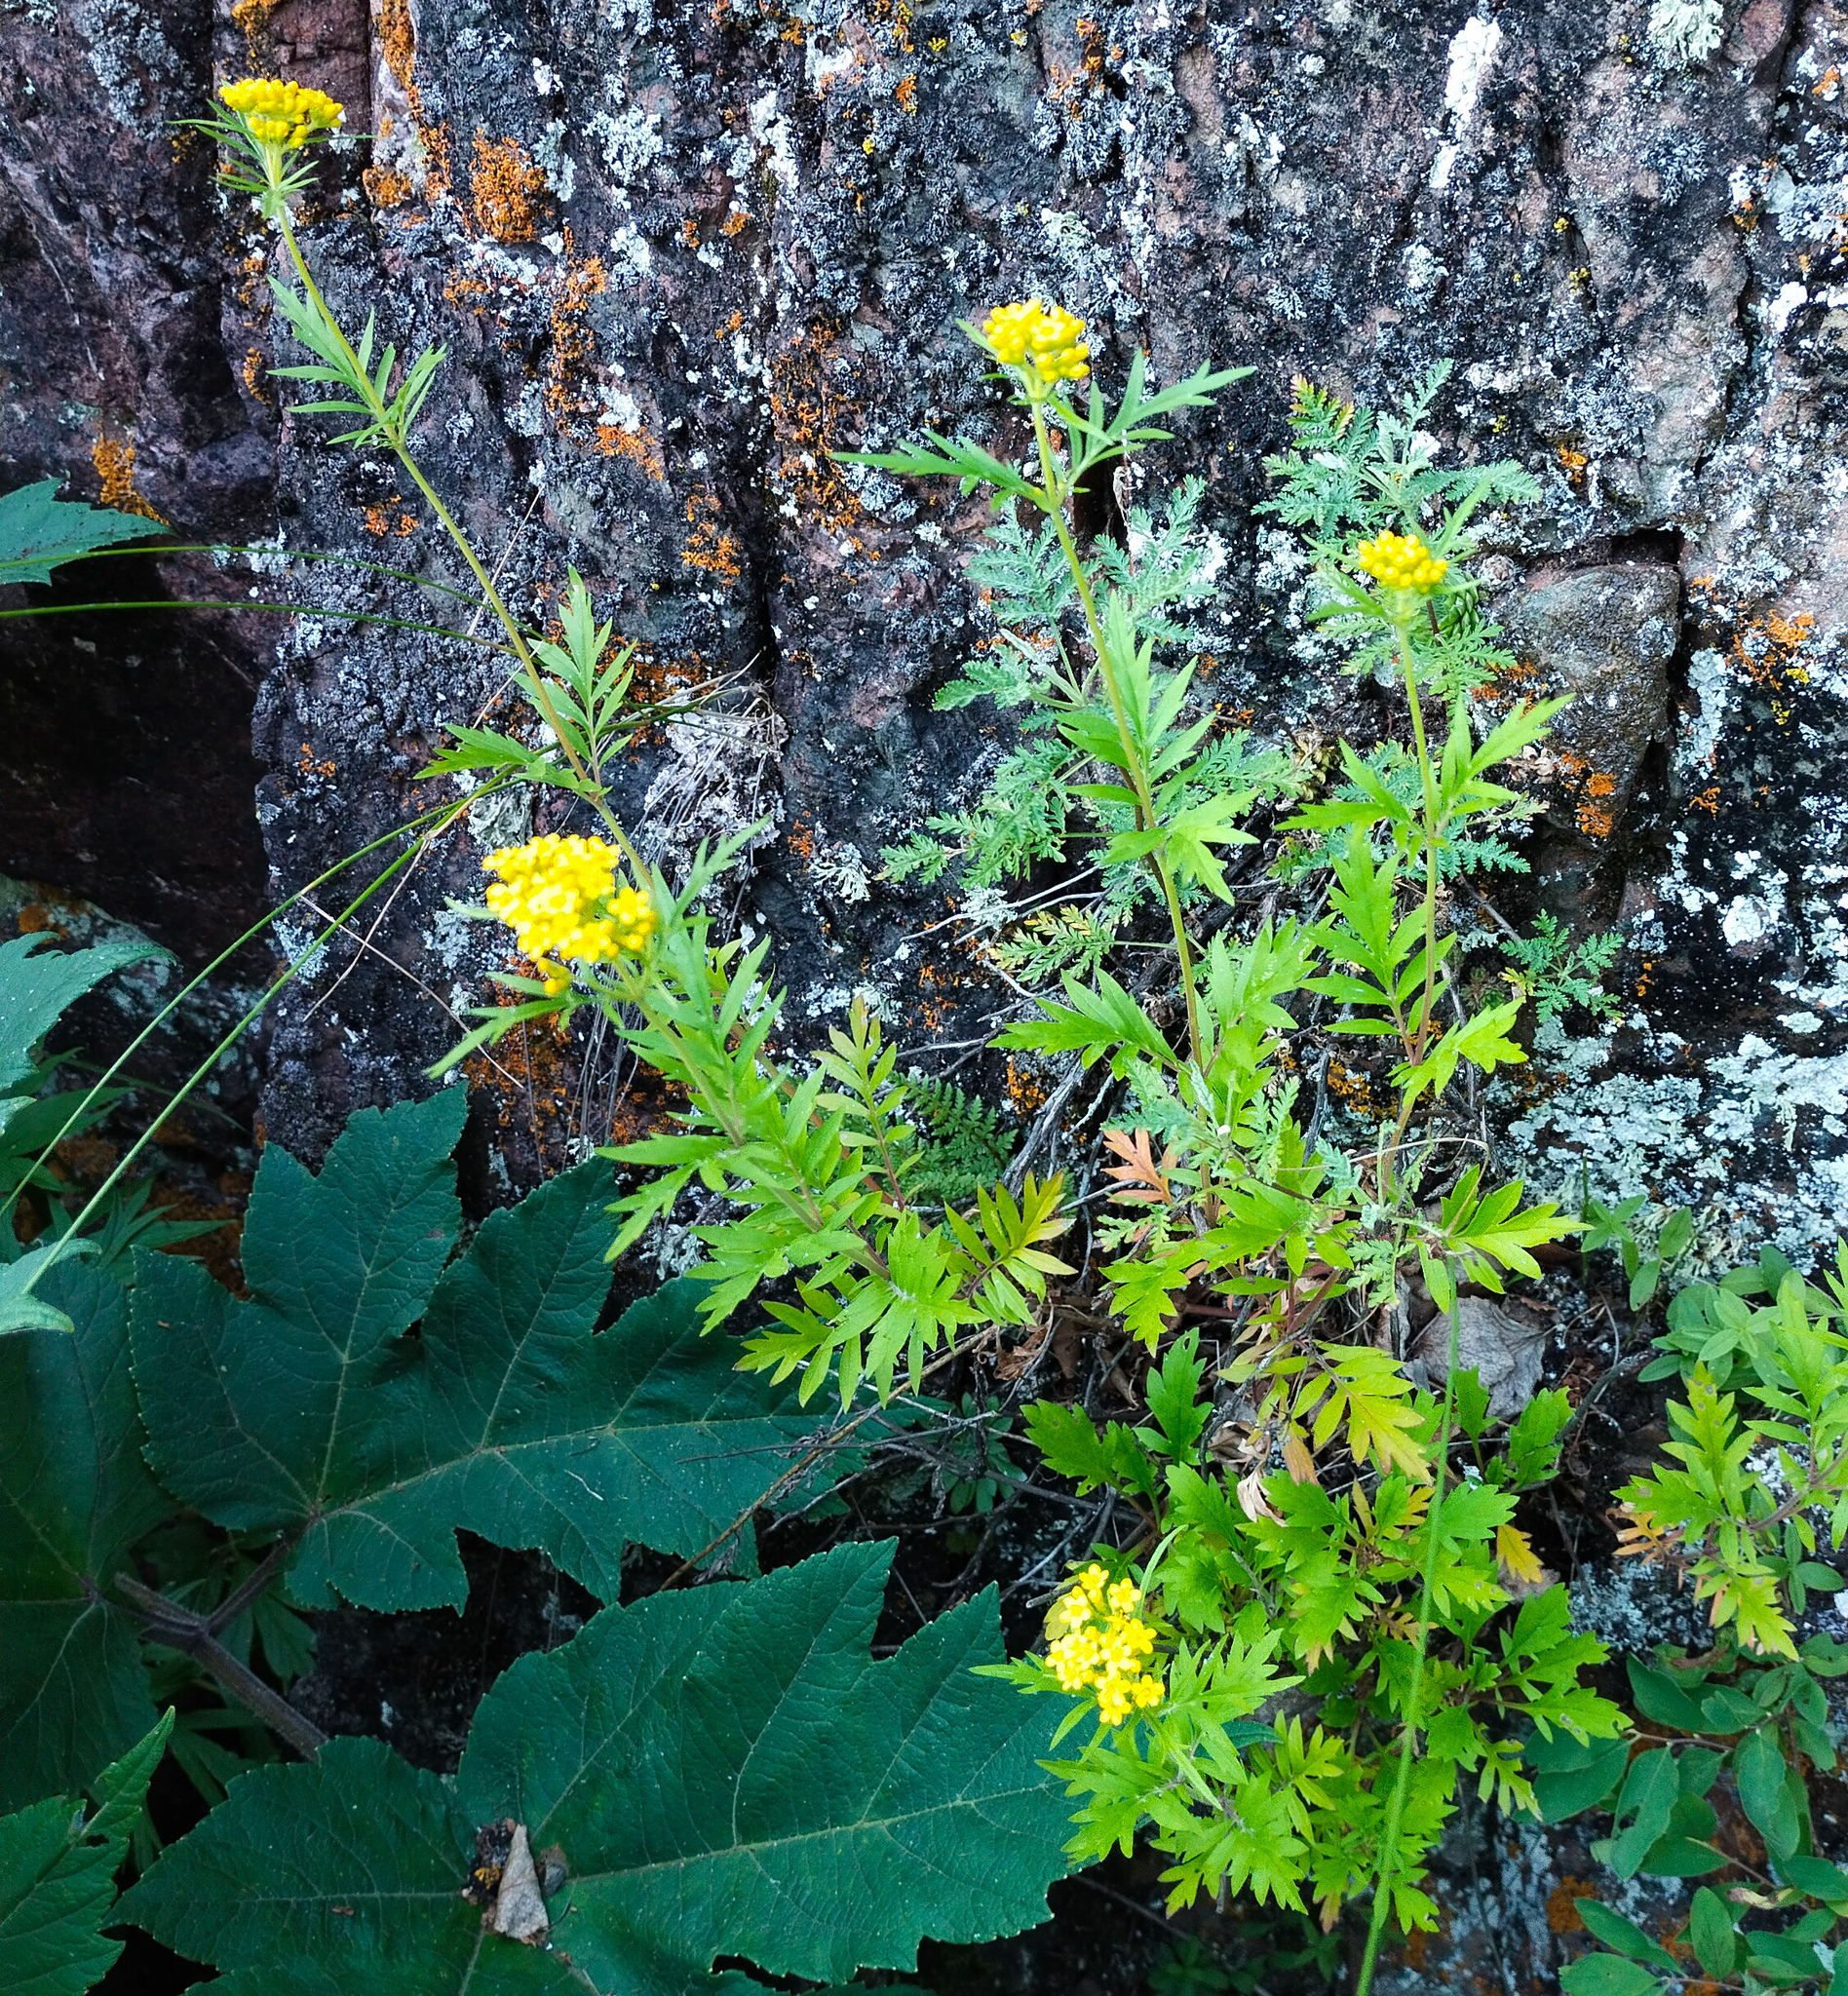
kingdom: Plantae
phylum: Tracheophyta
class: Magnoliopsida
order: Dipsacales
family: Caprifoliaceae
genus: Patrinia
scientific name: Patrinia rupestris
